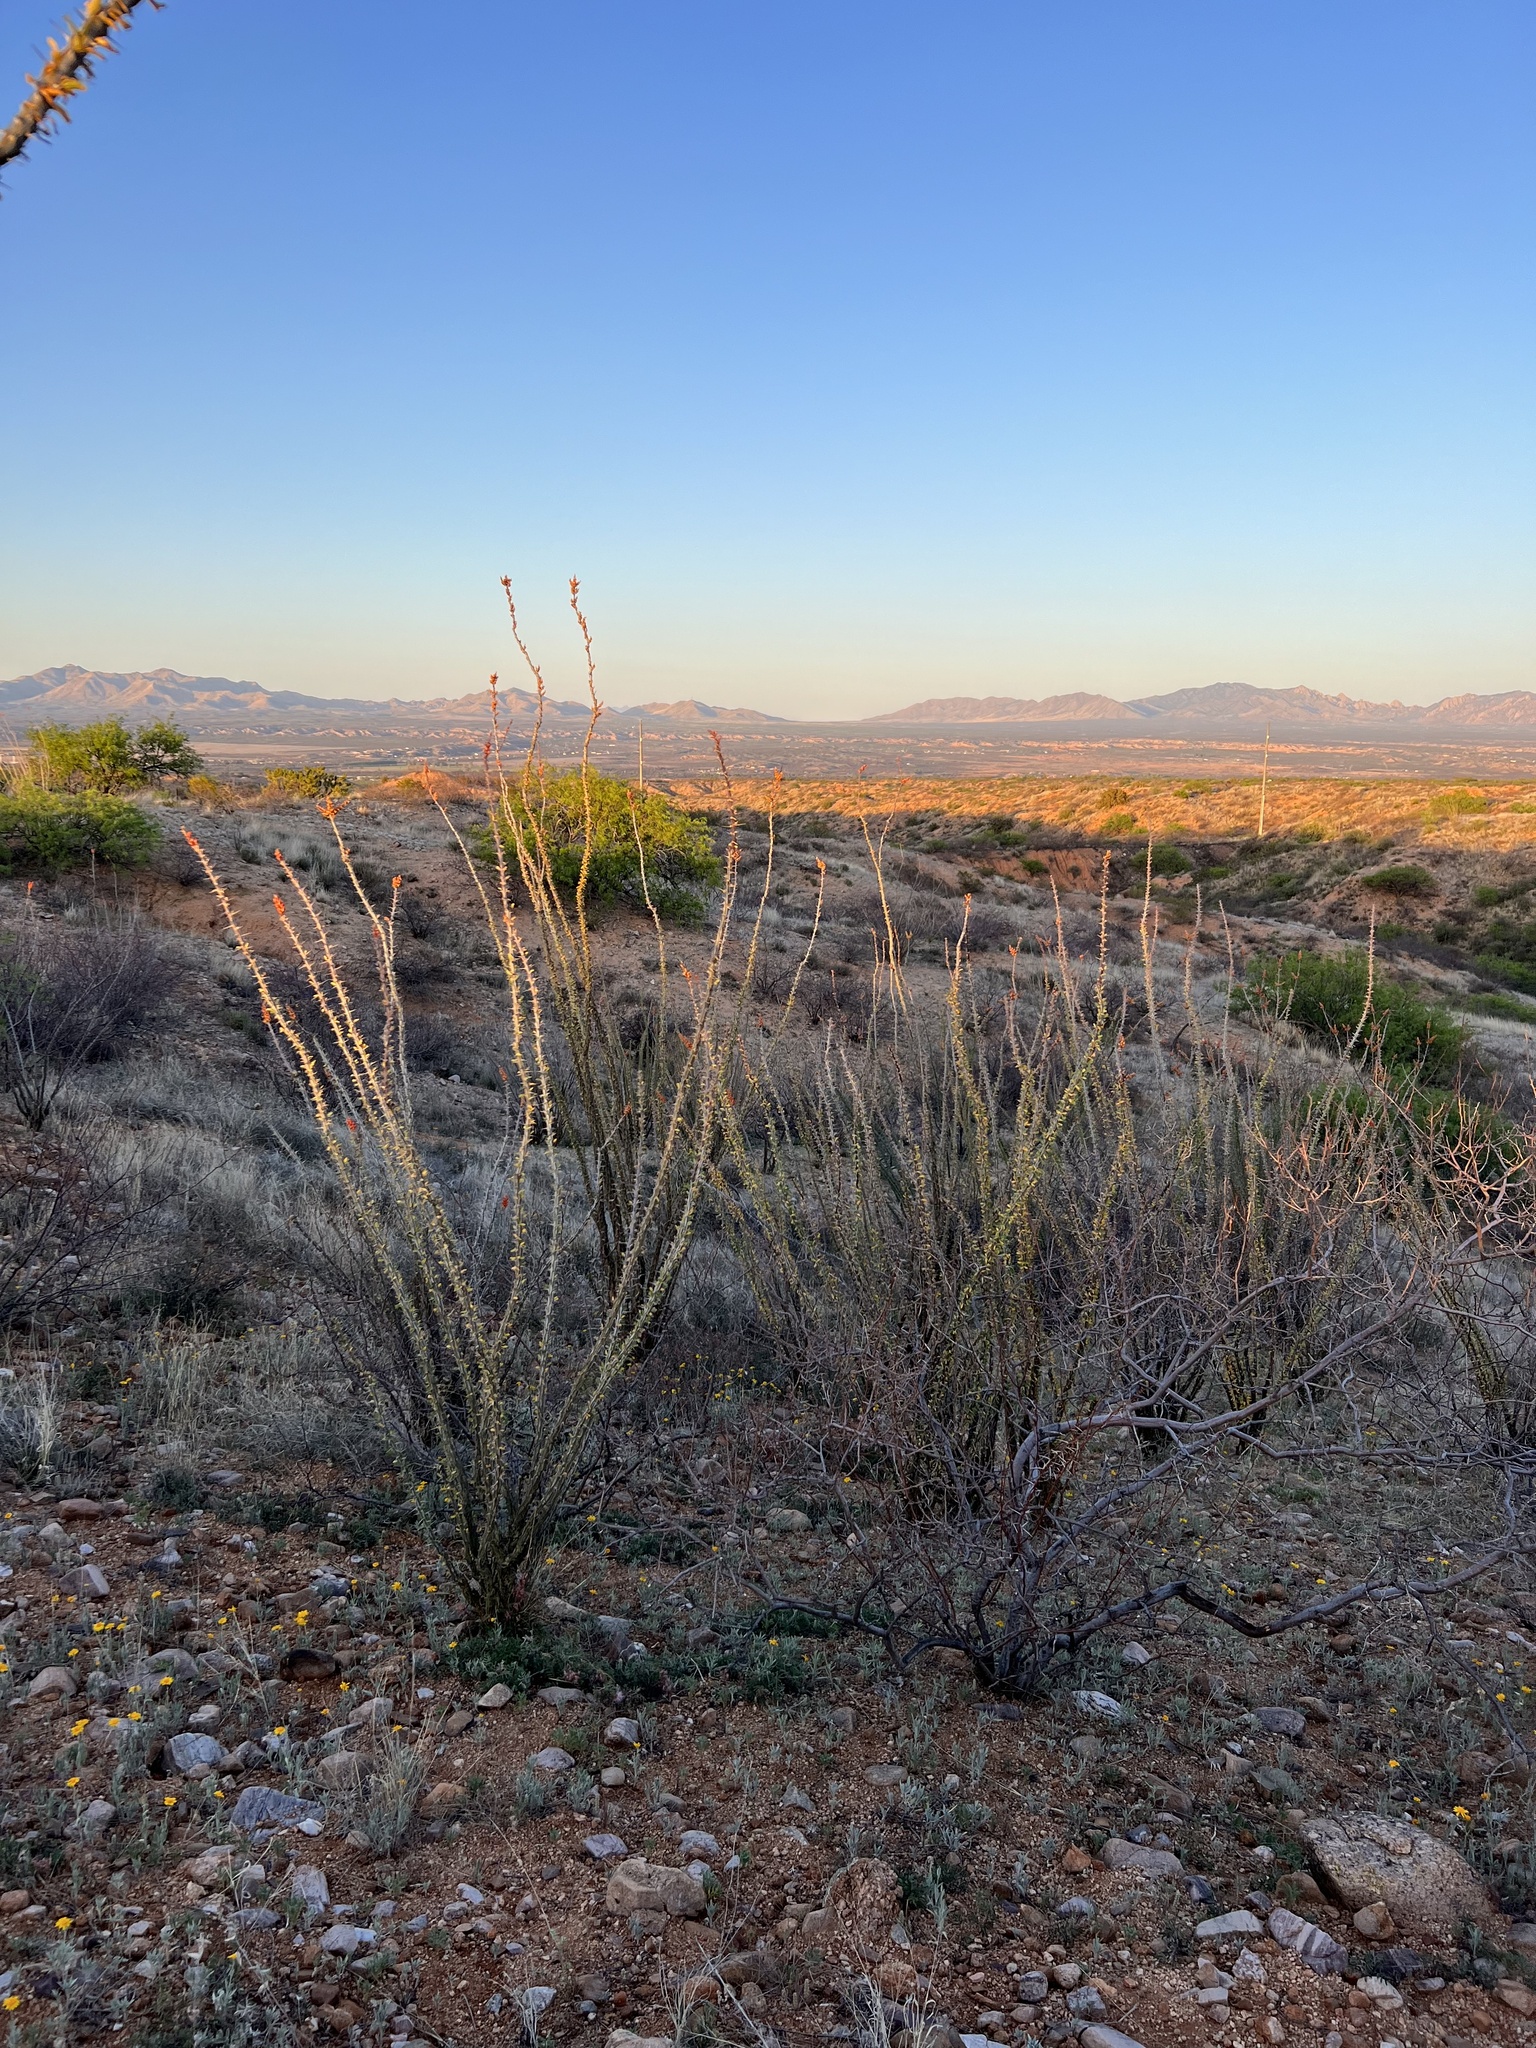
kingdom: Plantae
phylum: Tracheophyta
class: Magnoliopsida
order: Ericales
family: Fouquieriaceae
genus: Fouquieria
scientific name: Fouquieria splendens
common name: Vine-cactus
